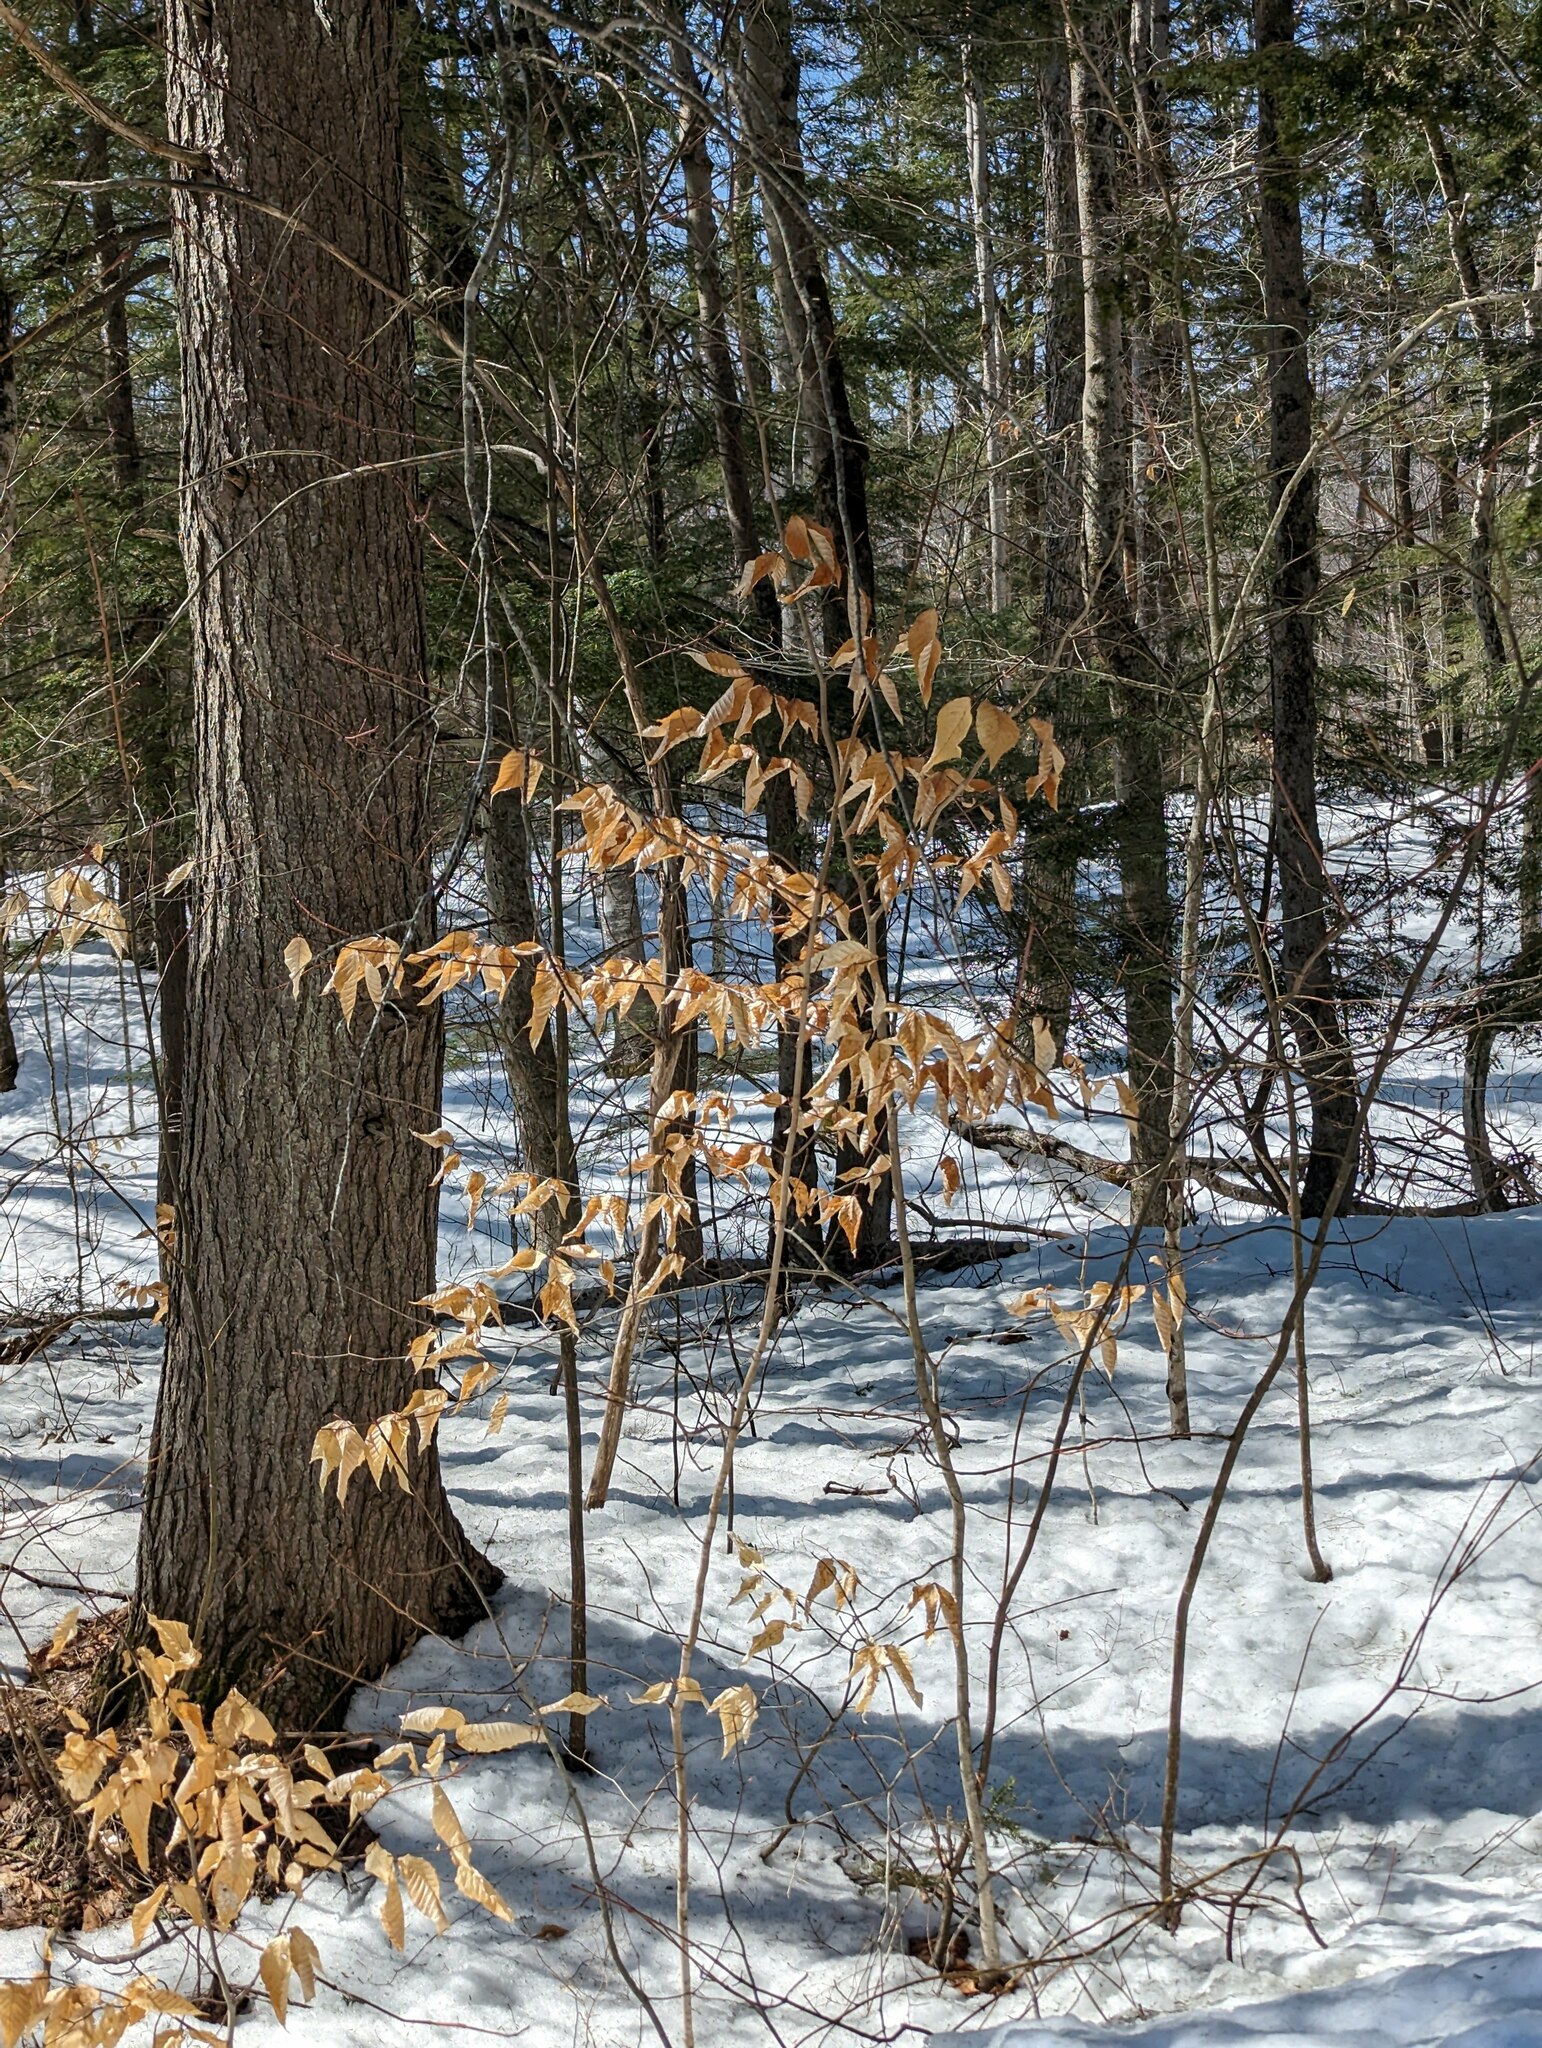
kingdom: Plantae
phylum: Tracheophyta
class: Magnoliopsida
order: Fagales
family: Fagaceae
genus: Fagus
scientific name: Fagus grandifolia
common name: American beech
